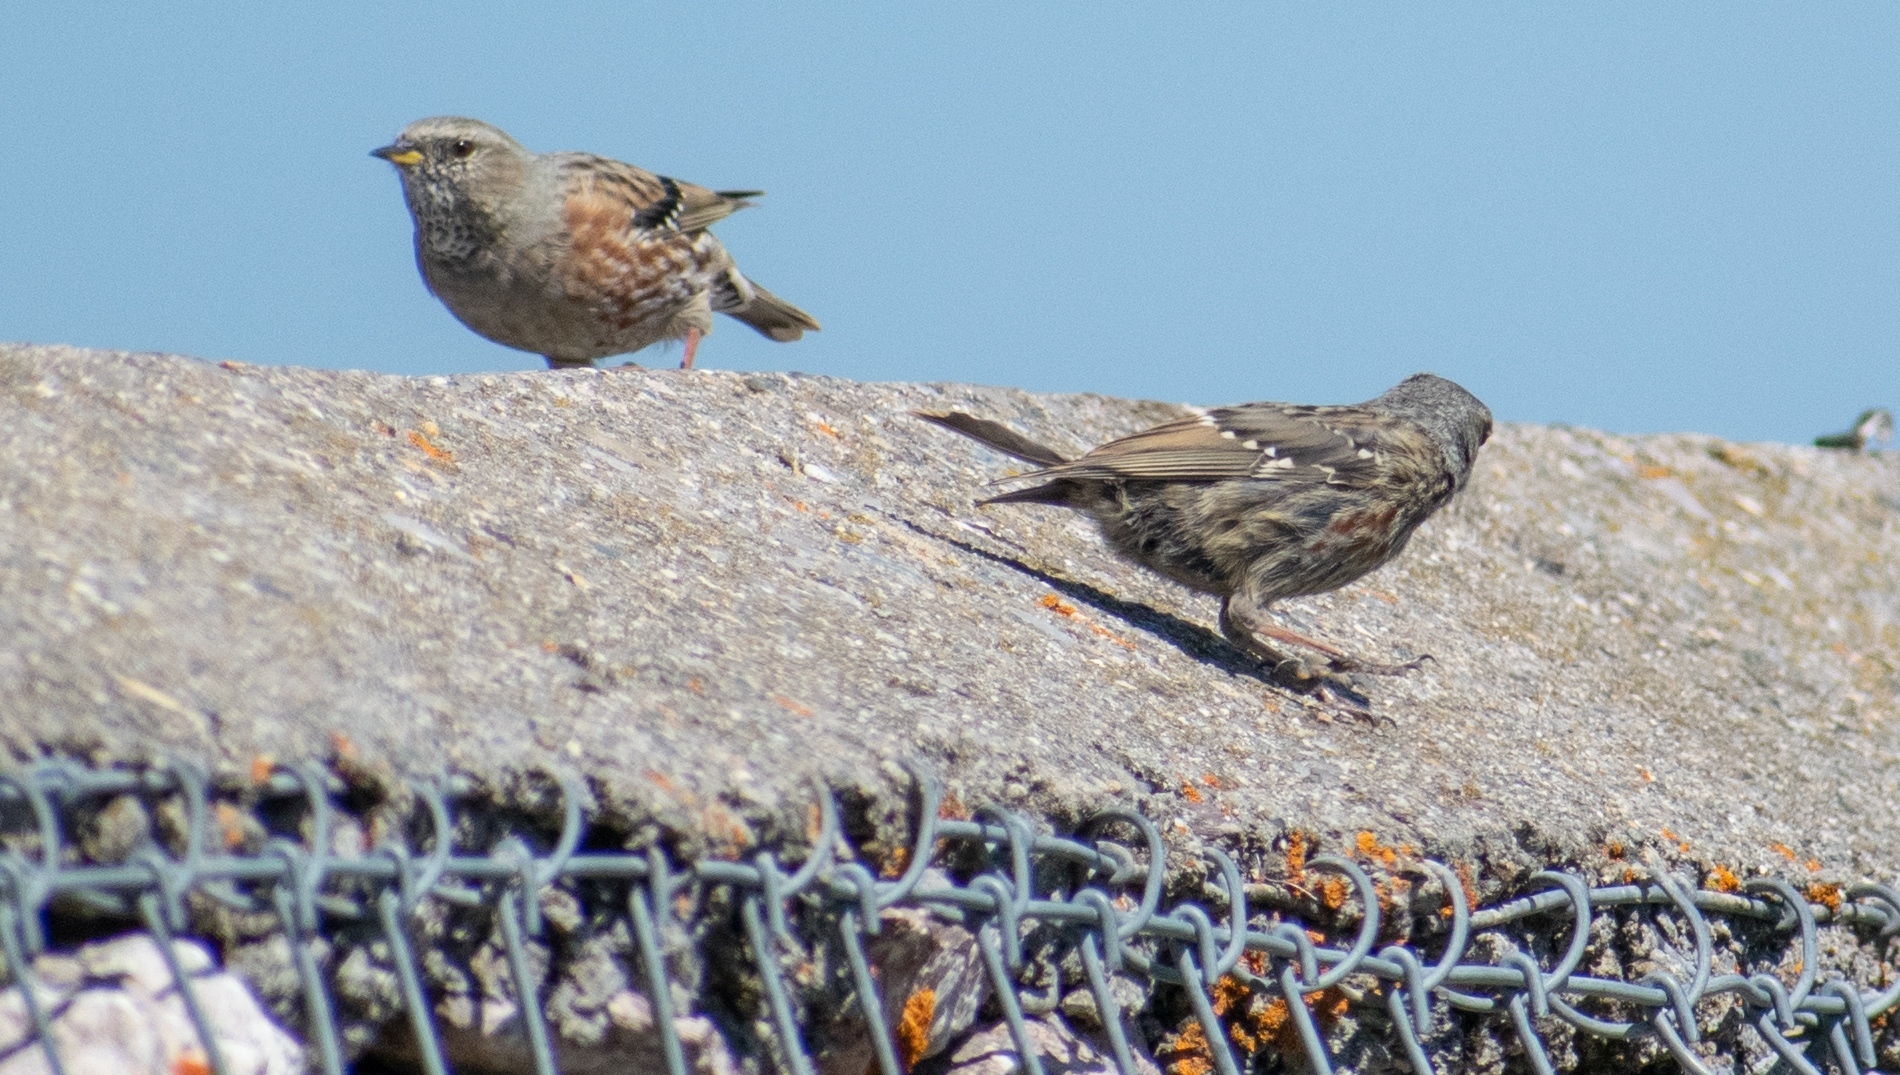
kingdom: Animalia
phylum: Chordata
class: Aves
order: Passeriformes
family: Prunellidae
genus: Prunella
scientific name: Prunella collaris
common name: Alpine accentor
